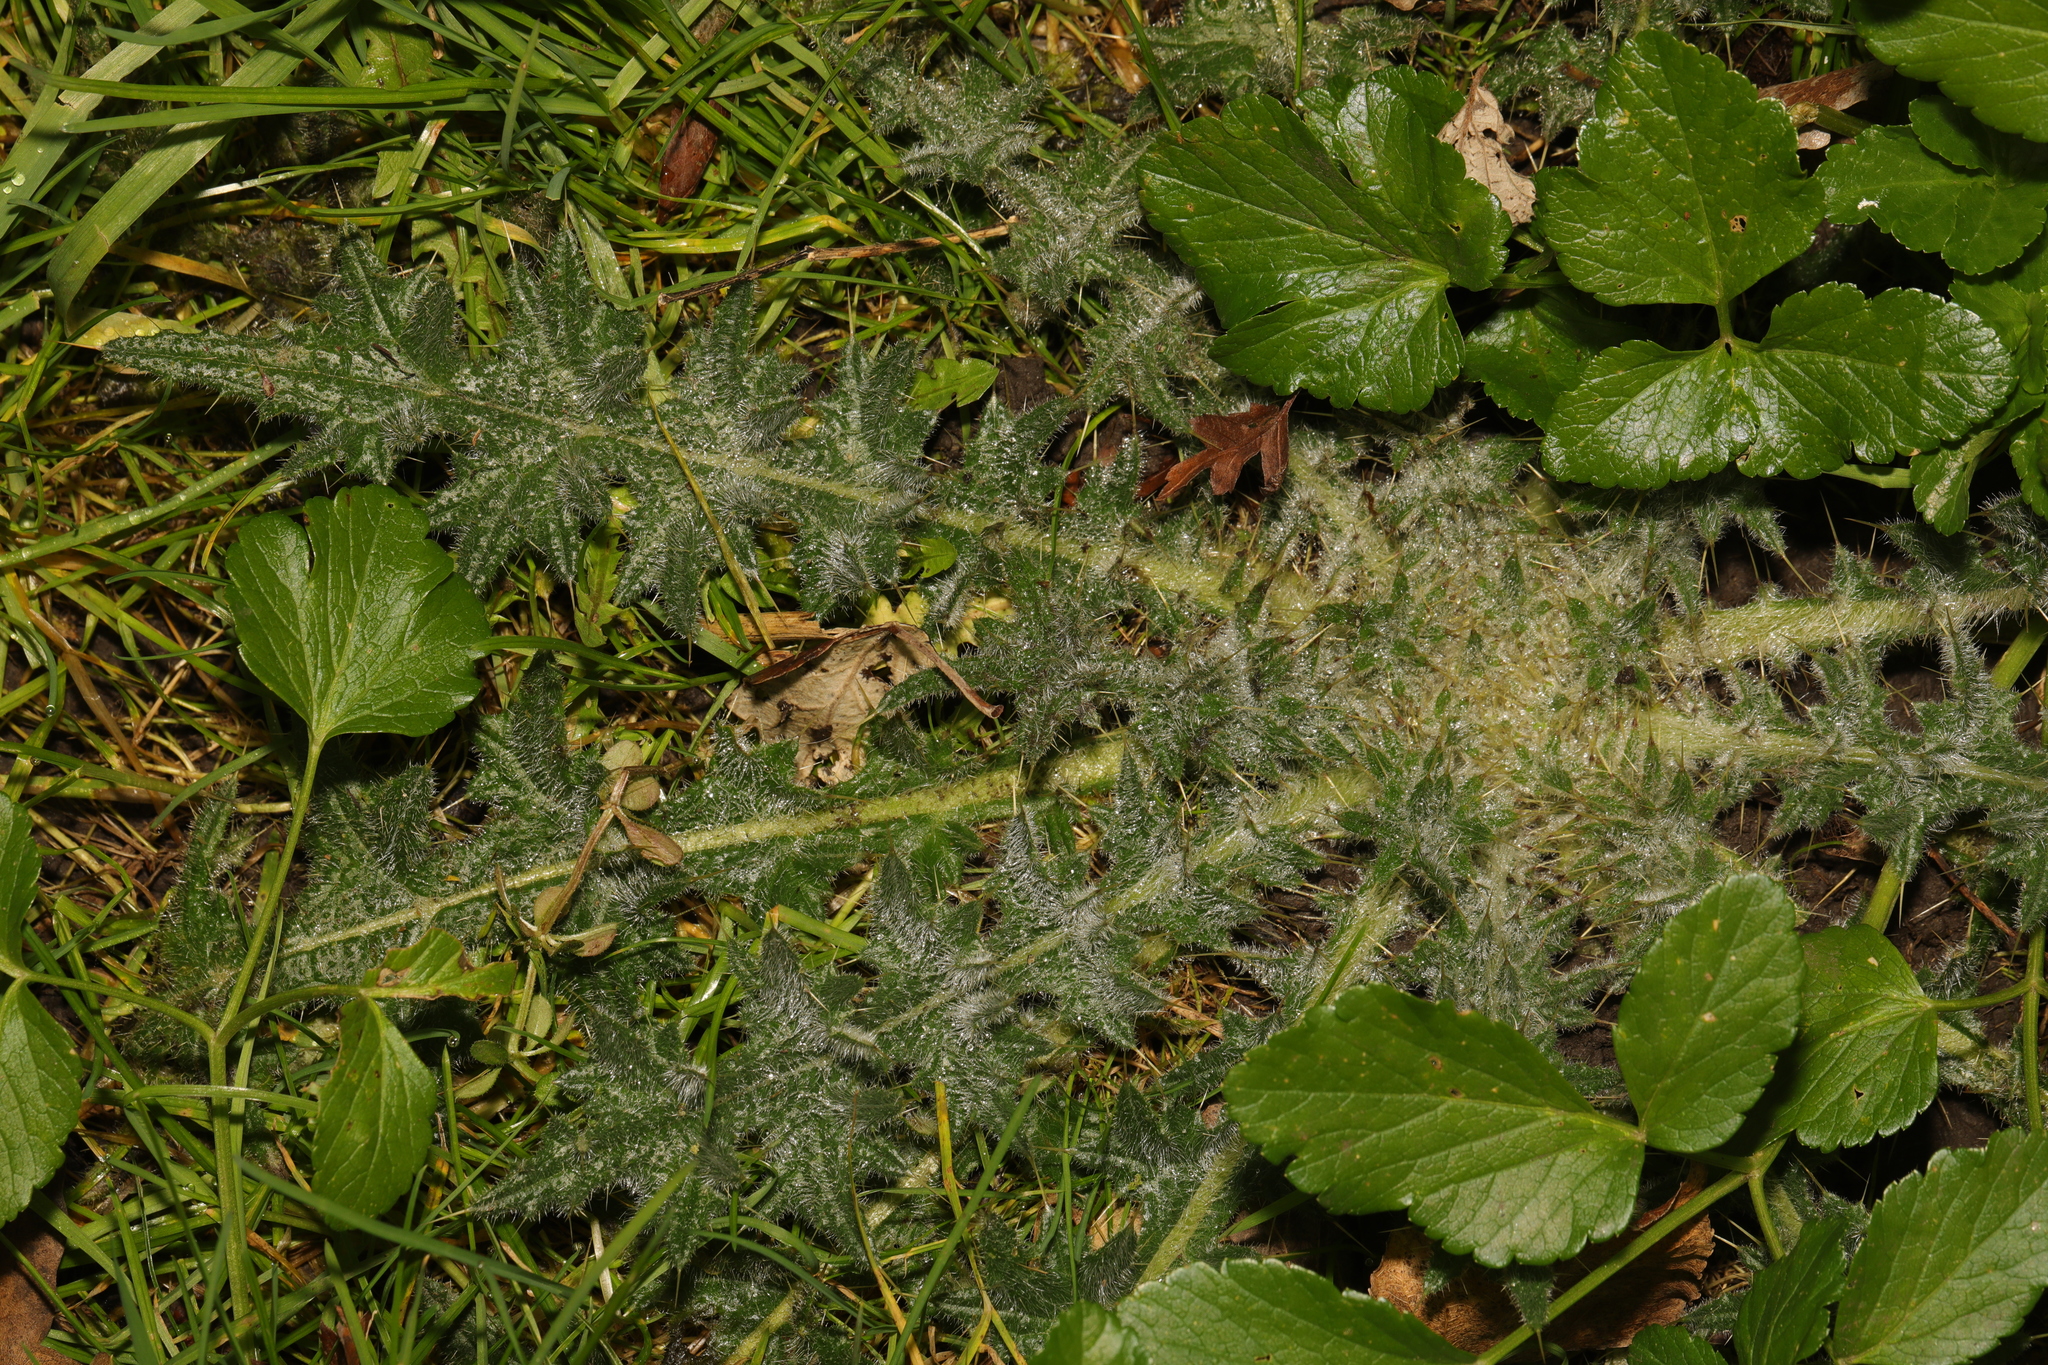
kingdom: Plantae
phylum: Tracheophyta
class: Magnoliopsida
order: Asterales
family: Asteraceae
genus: Cirsium
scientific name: Cirsium vulgare
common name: Bull thistle
